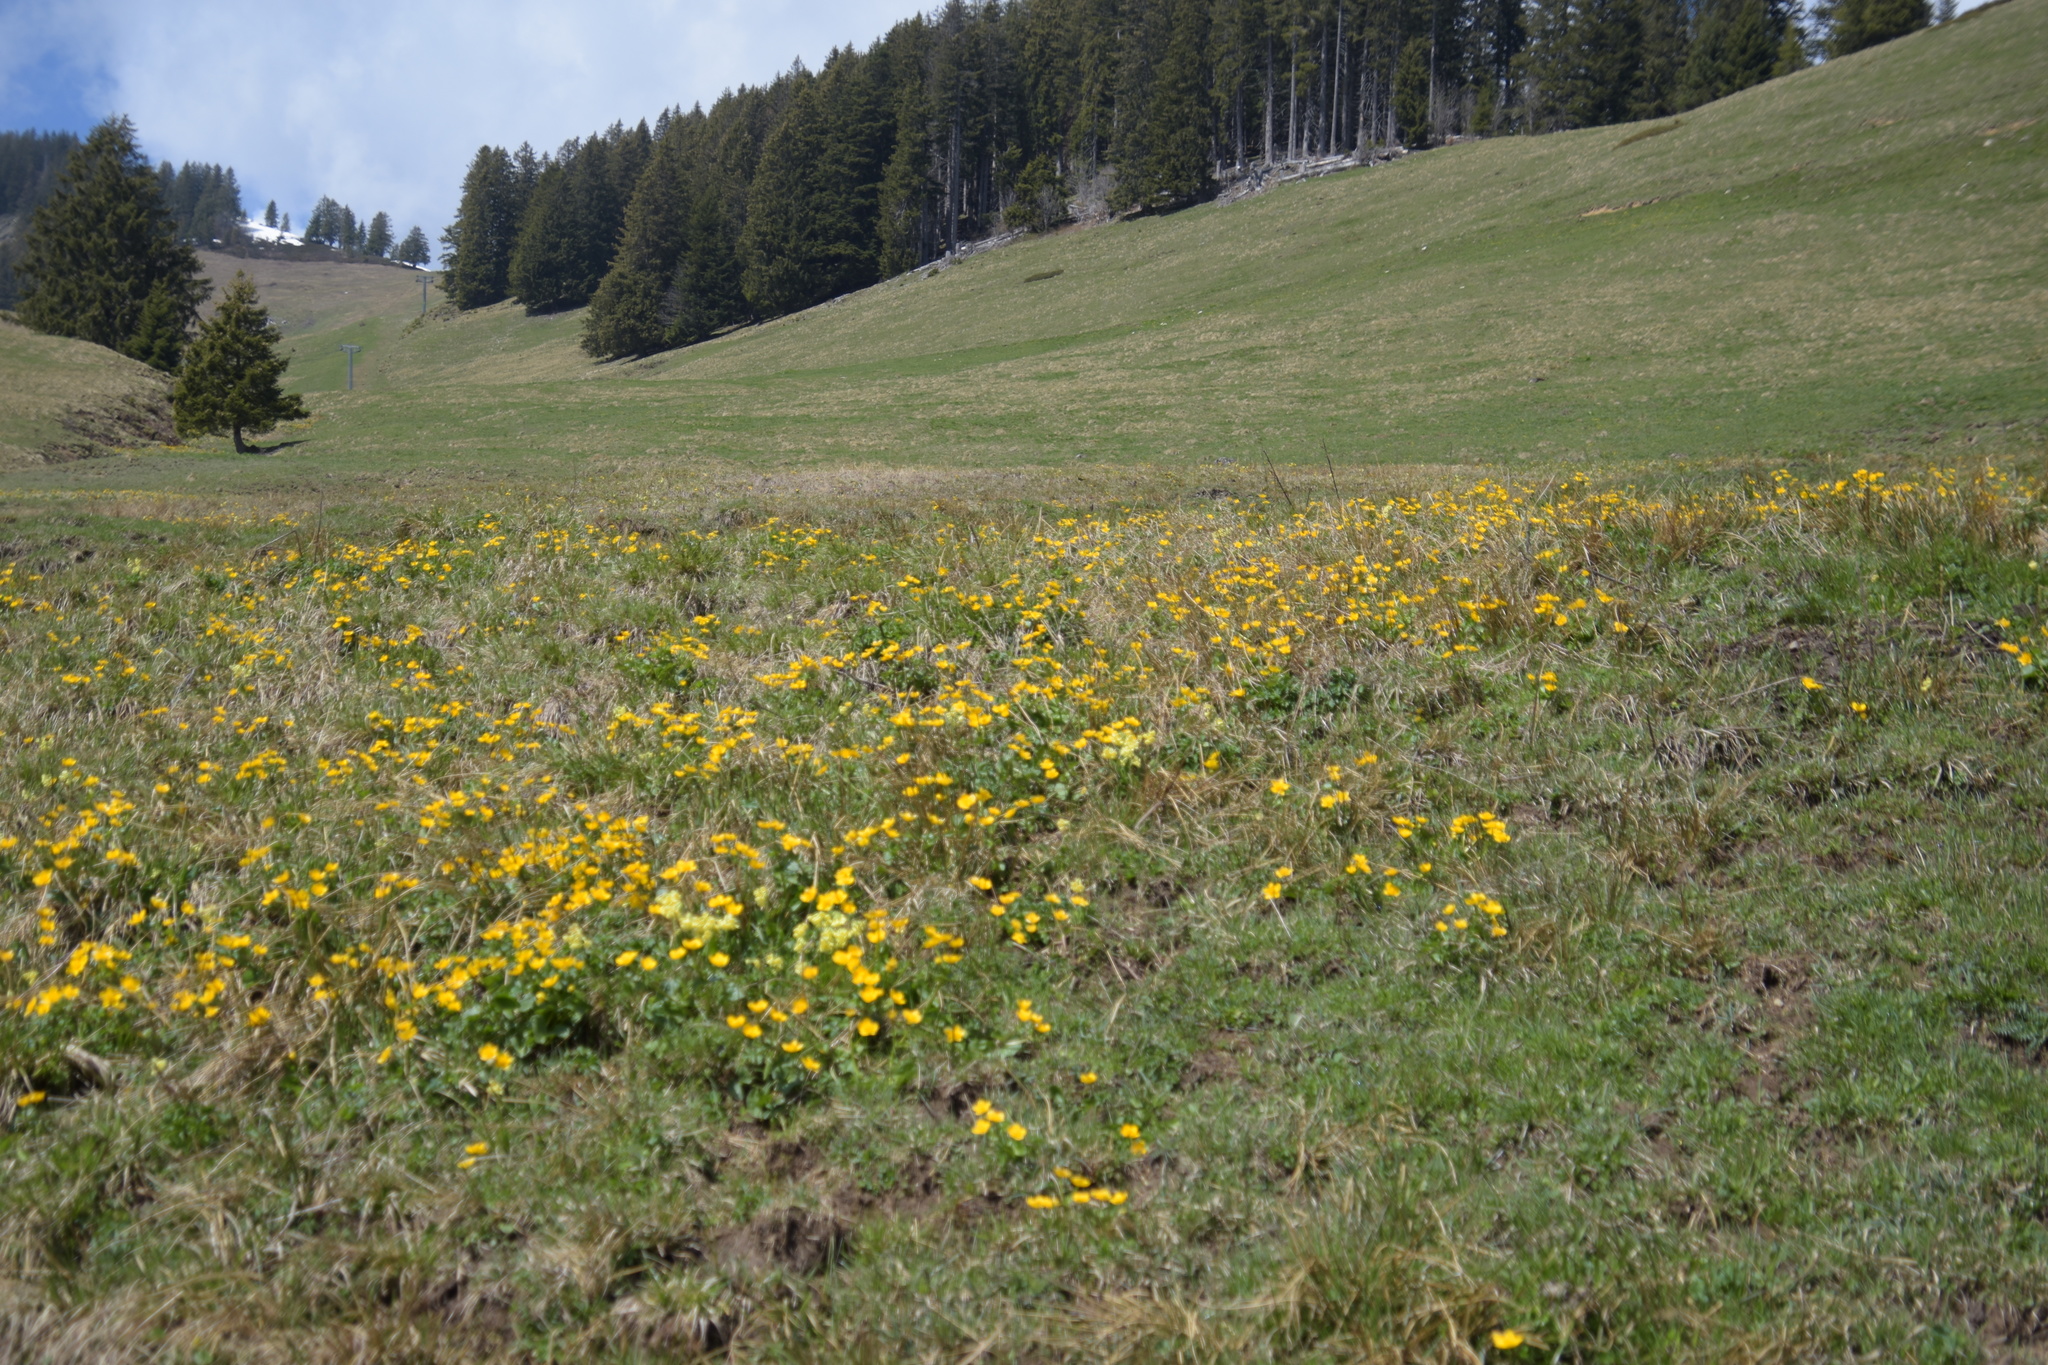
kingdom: Plantae
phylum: Tracheophyta
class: Magnoliopsida
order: Ranunculales
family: Ranunculaceae
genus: Caltha
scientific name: Caltha palustris
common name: Marsh marigold
